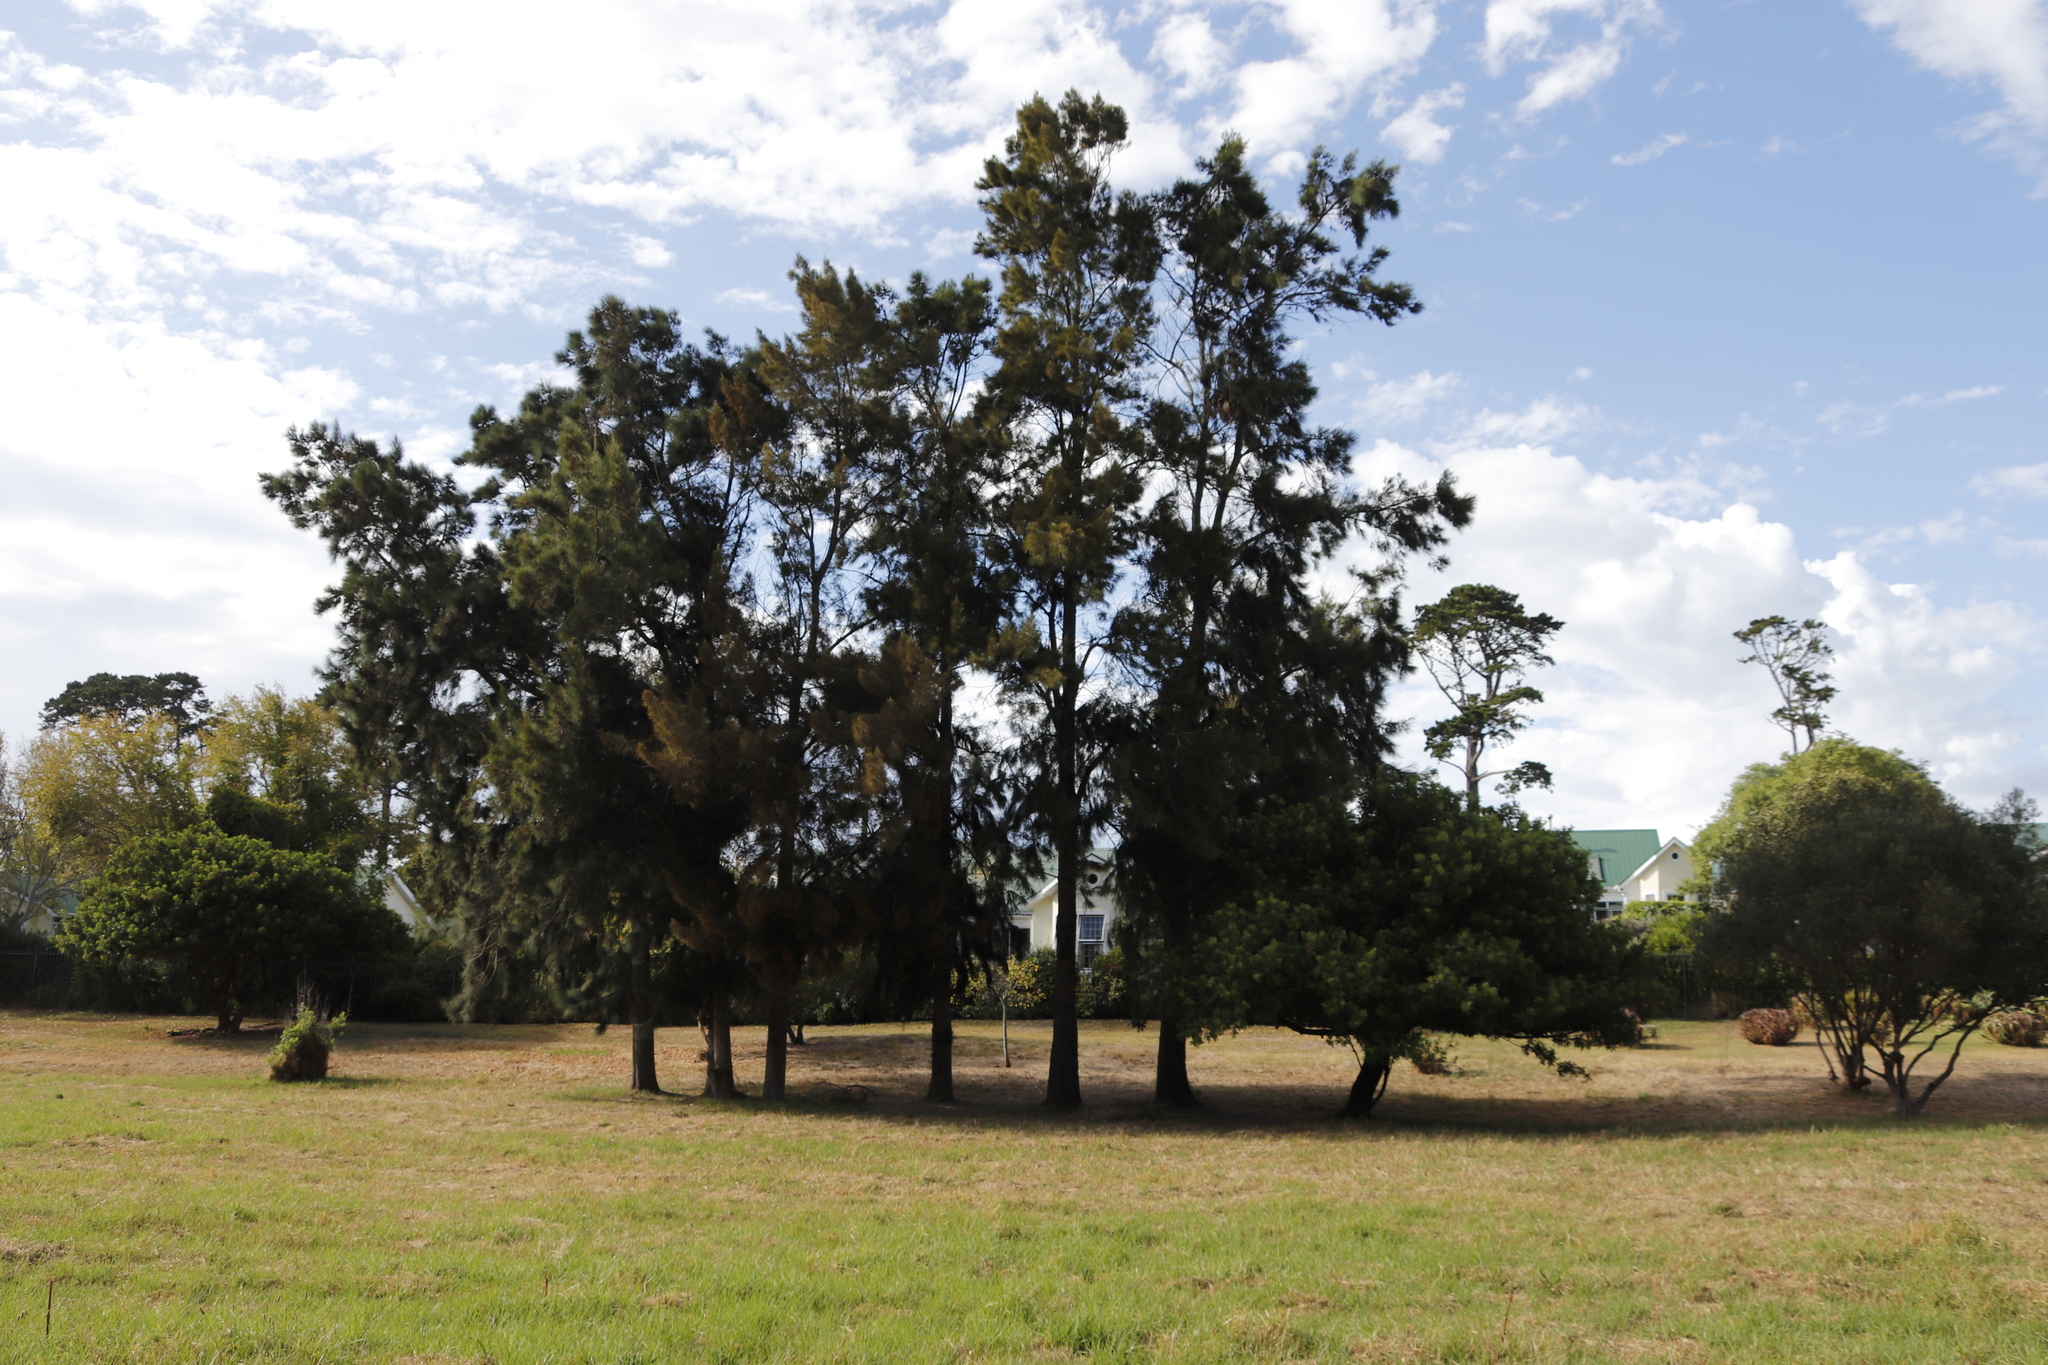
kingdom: Plantae
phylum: Tracheophyta
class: Magnoliopsida
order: Sapindales
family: Anacardiaceae
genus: Schinus
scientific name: Schinus terebinthifolia
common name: Brazilian peppertree
